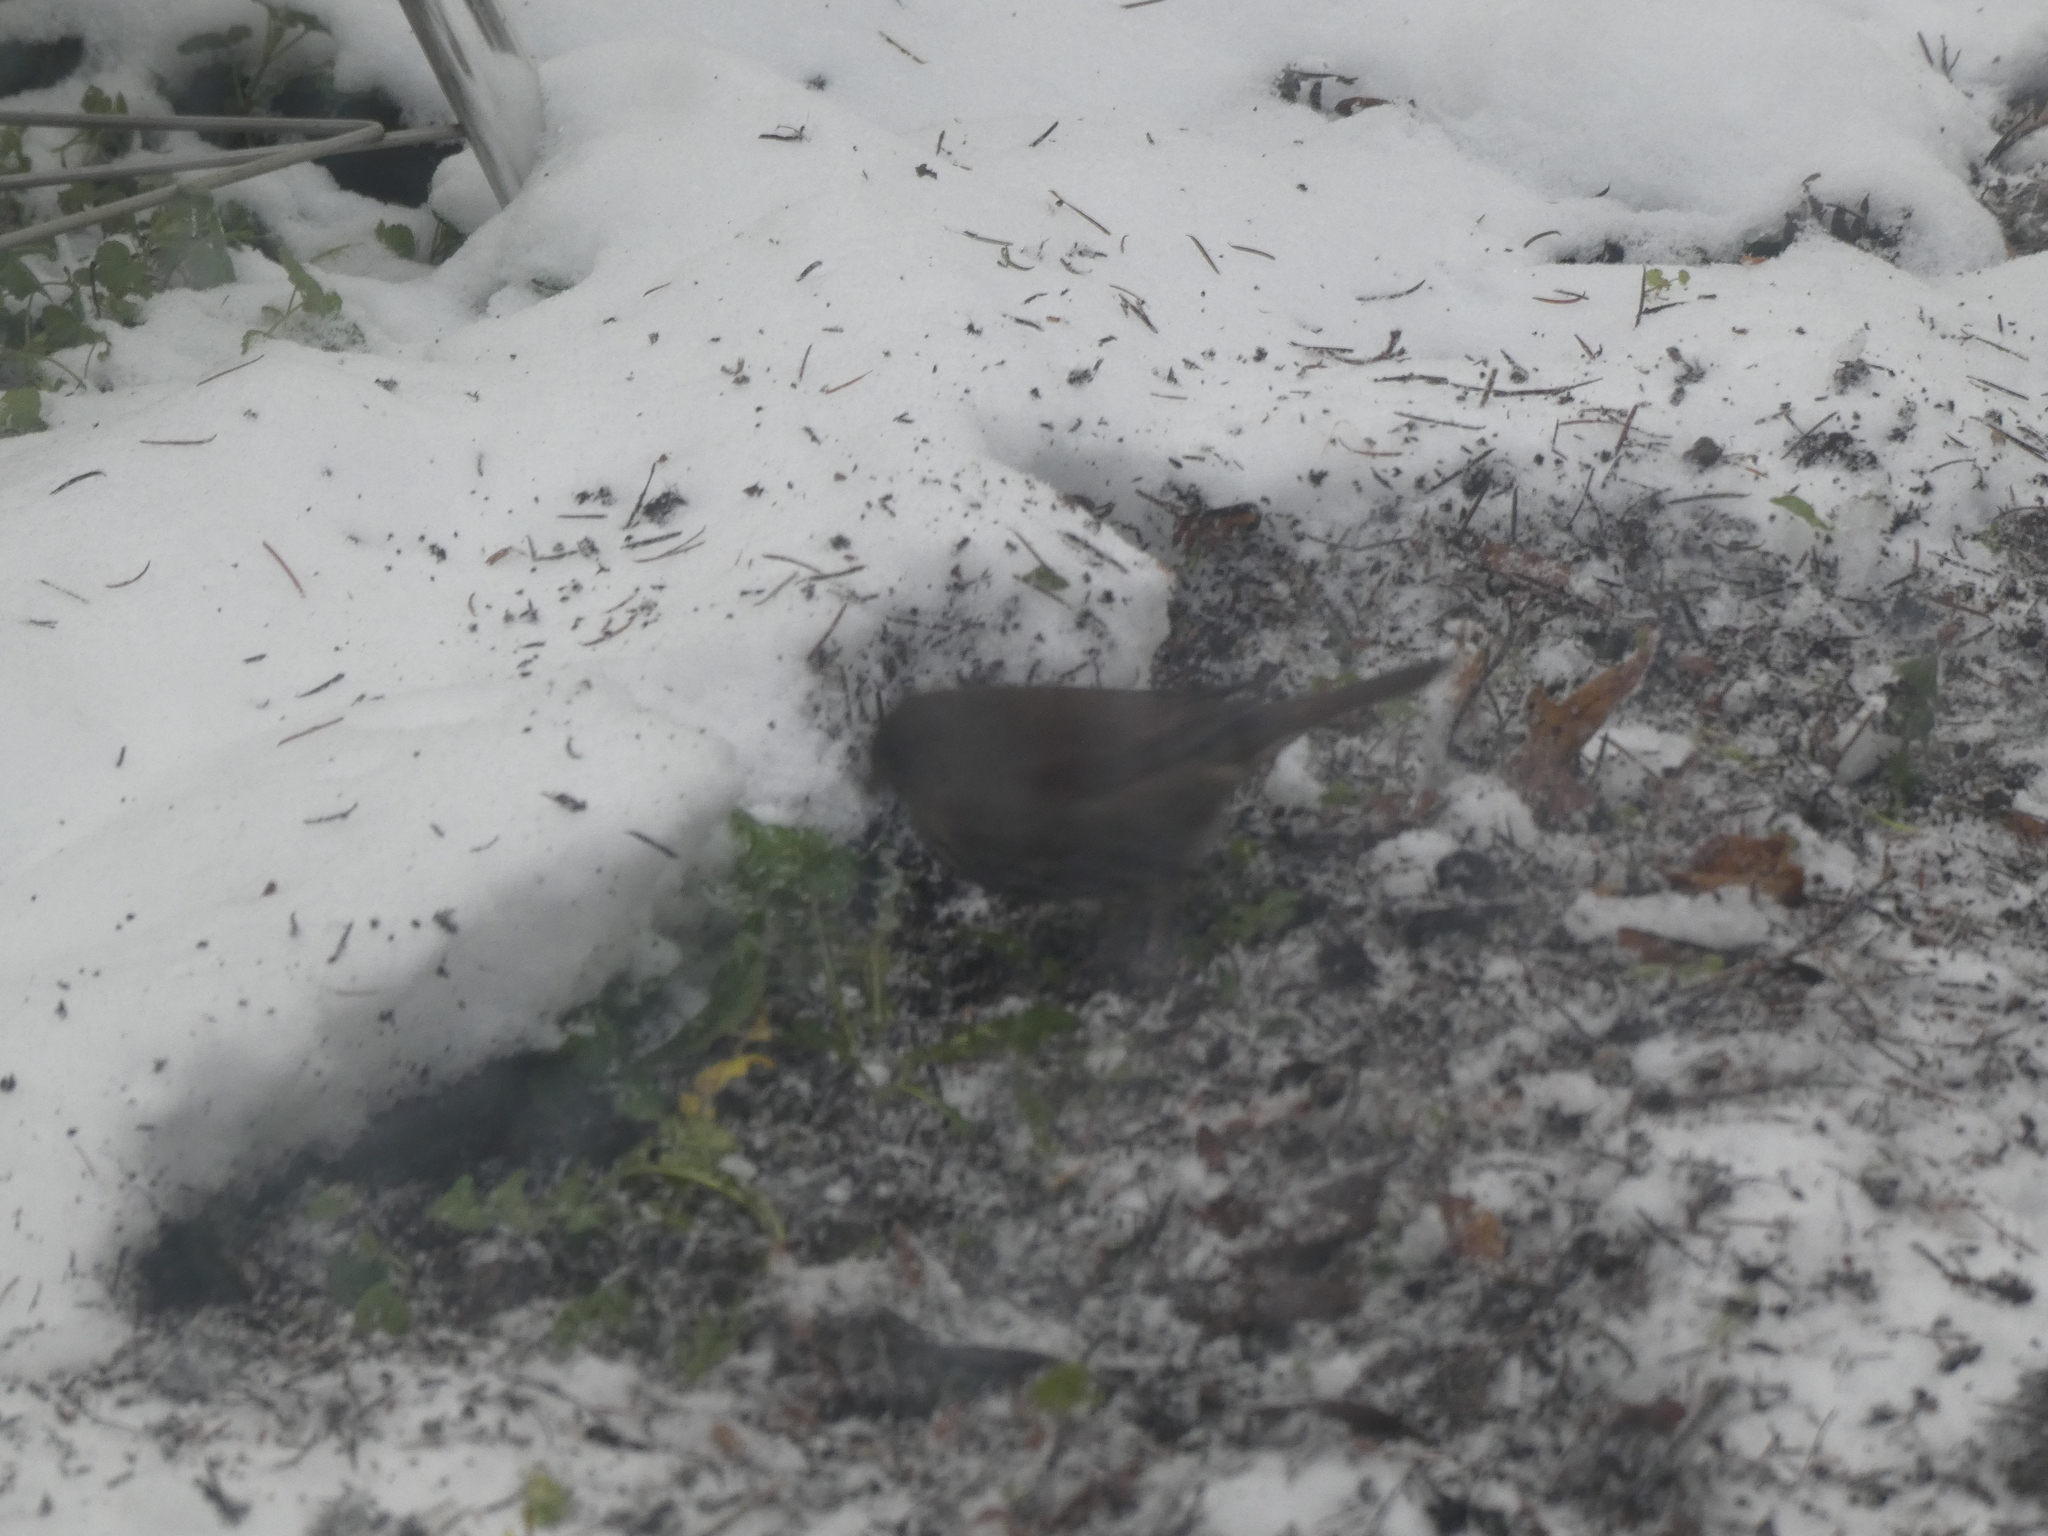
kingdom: Animalia
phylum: Chordata
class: Aves
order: Passeriformes
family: Passerellidae
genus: Passerella
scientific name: Passerella iliaca
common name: Fox sparrow
